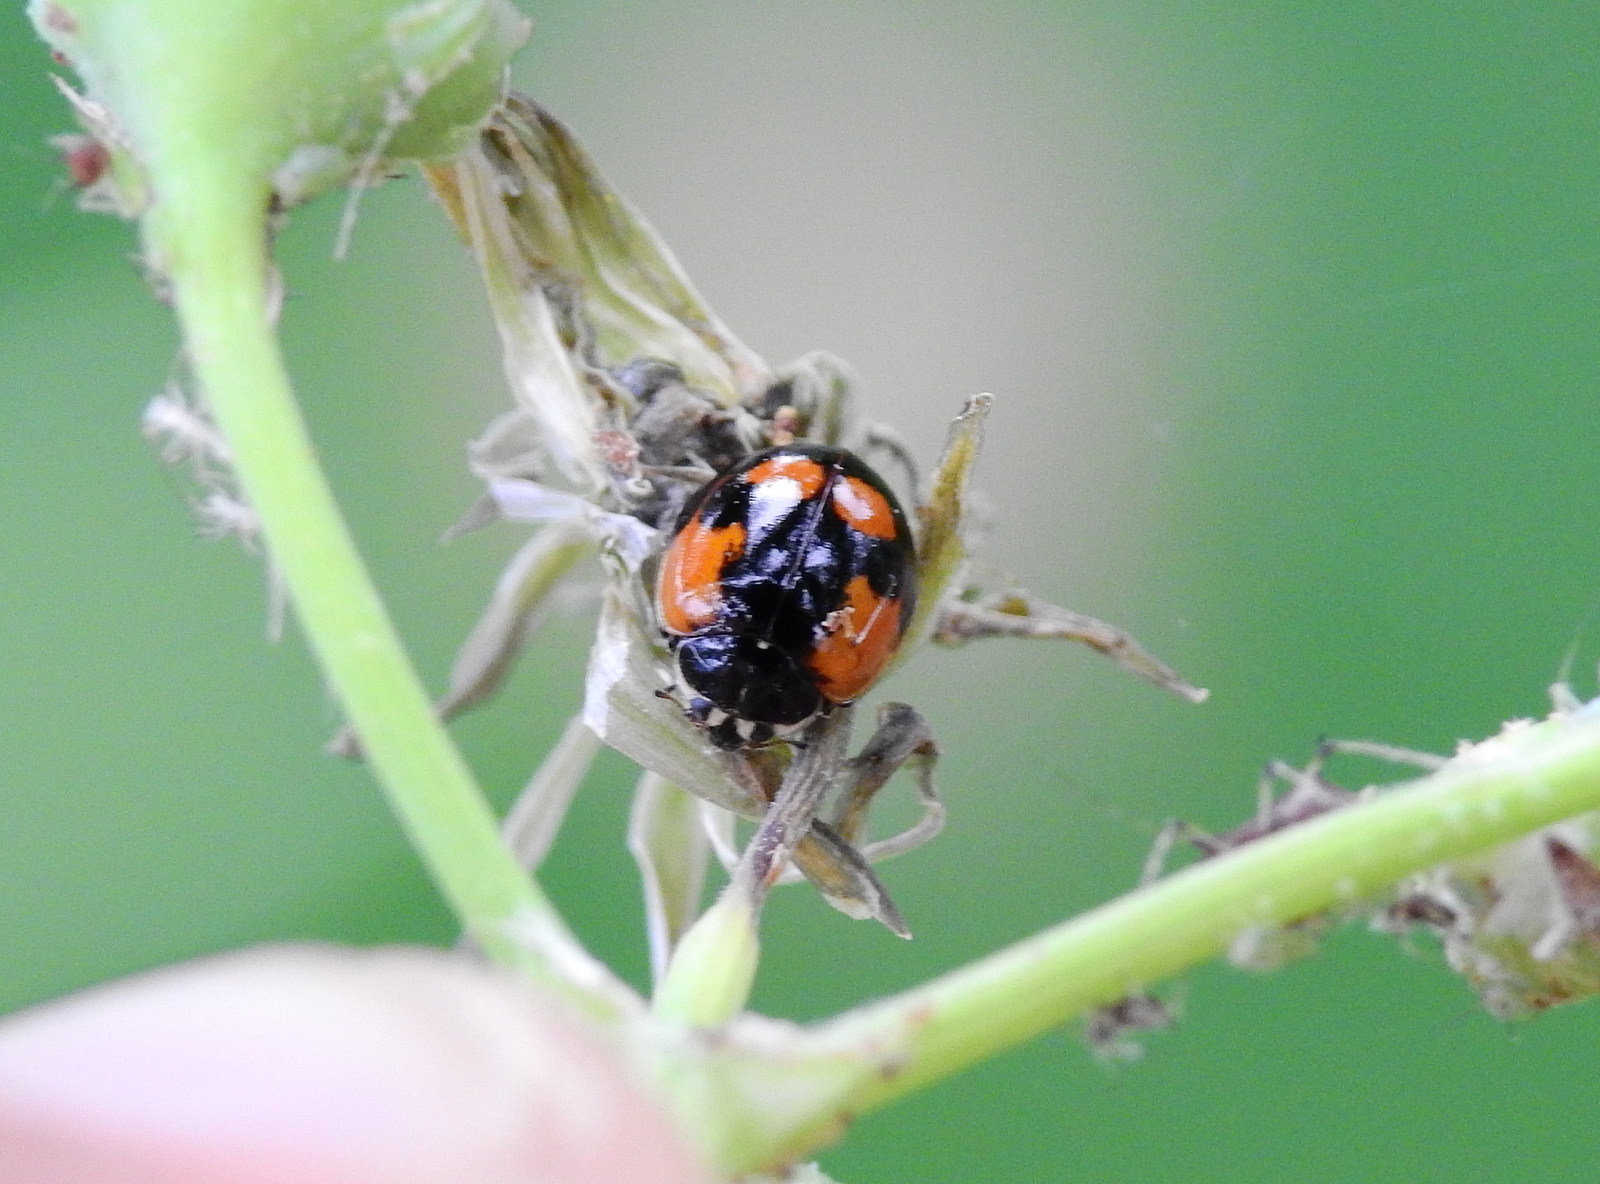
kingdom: Animalia
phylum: Arthropoda
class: Insecta
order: Coleoptera
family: Coccinellidae
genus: Adalia
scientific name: Adalia bipunctata
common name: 2-spot ladybird
